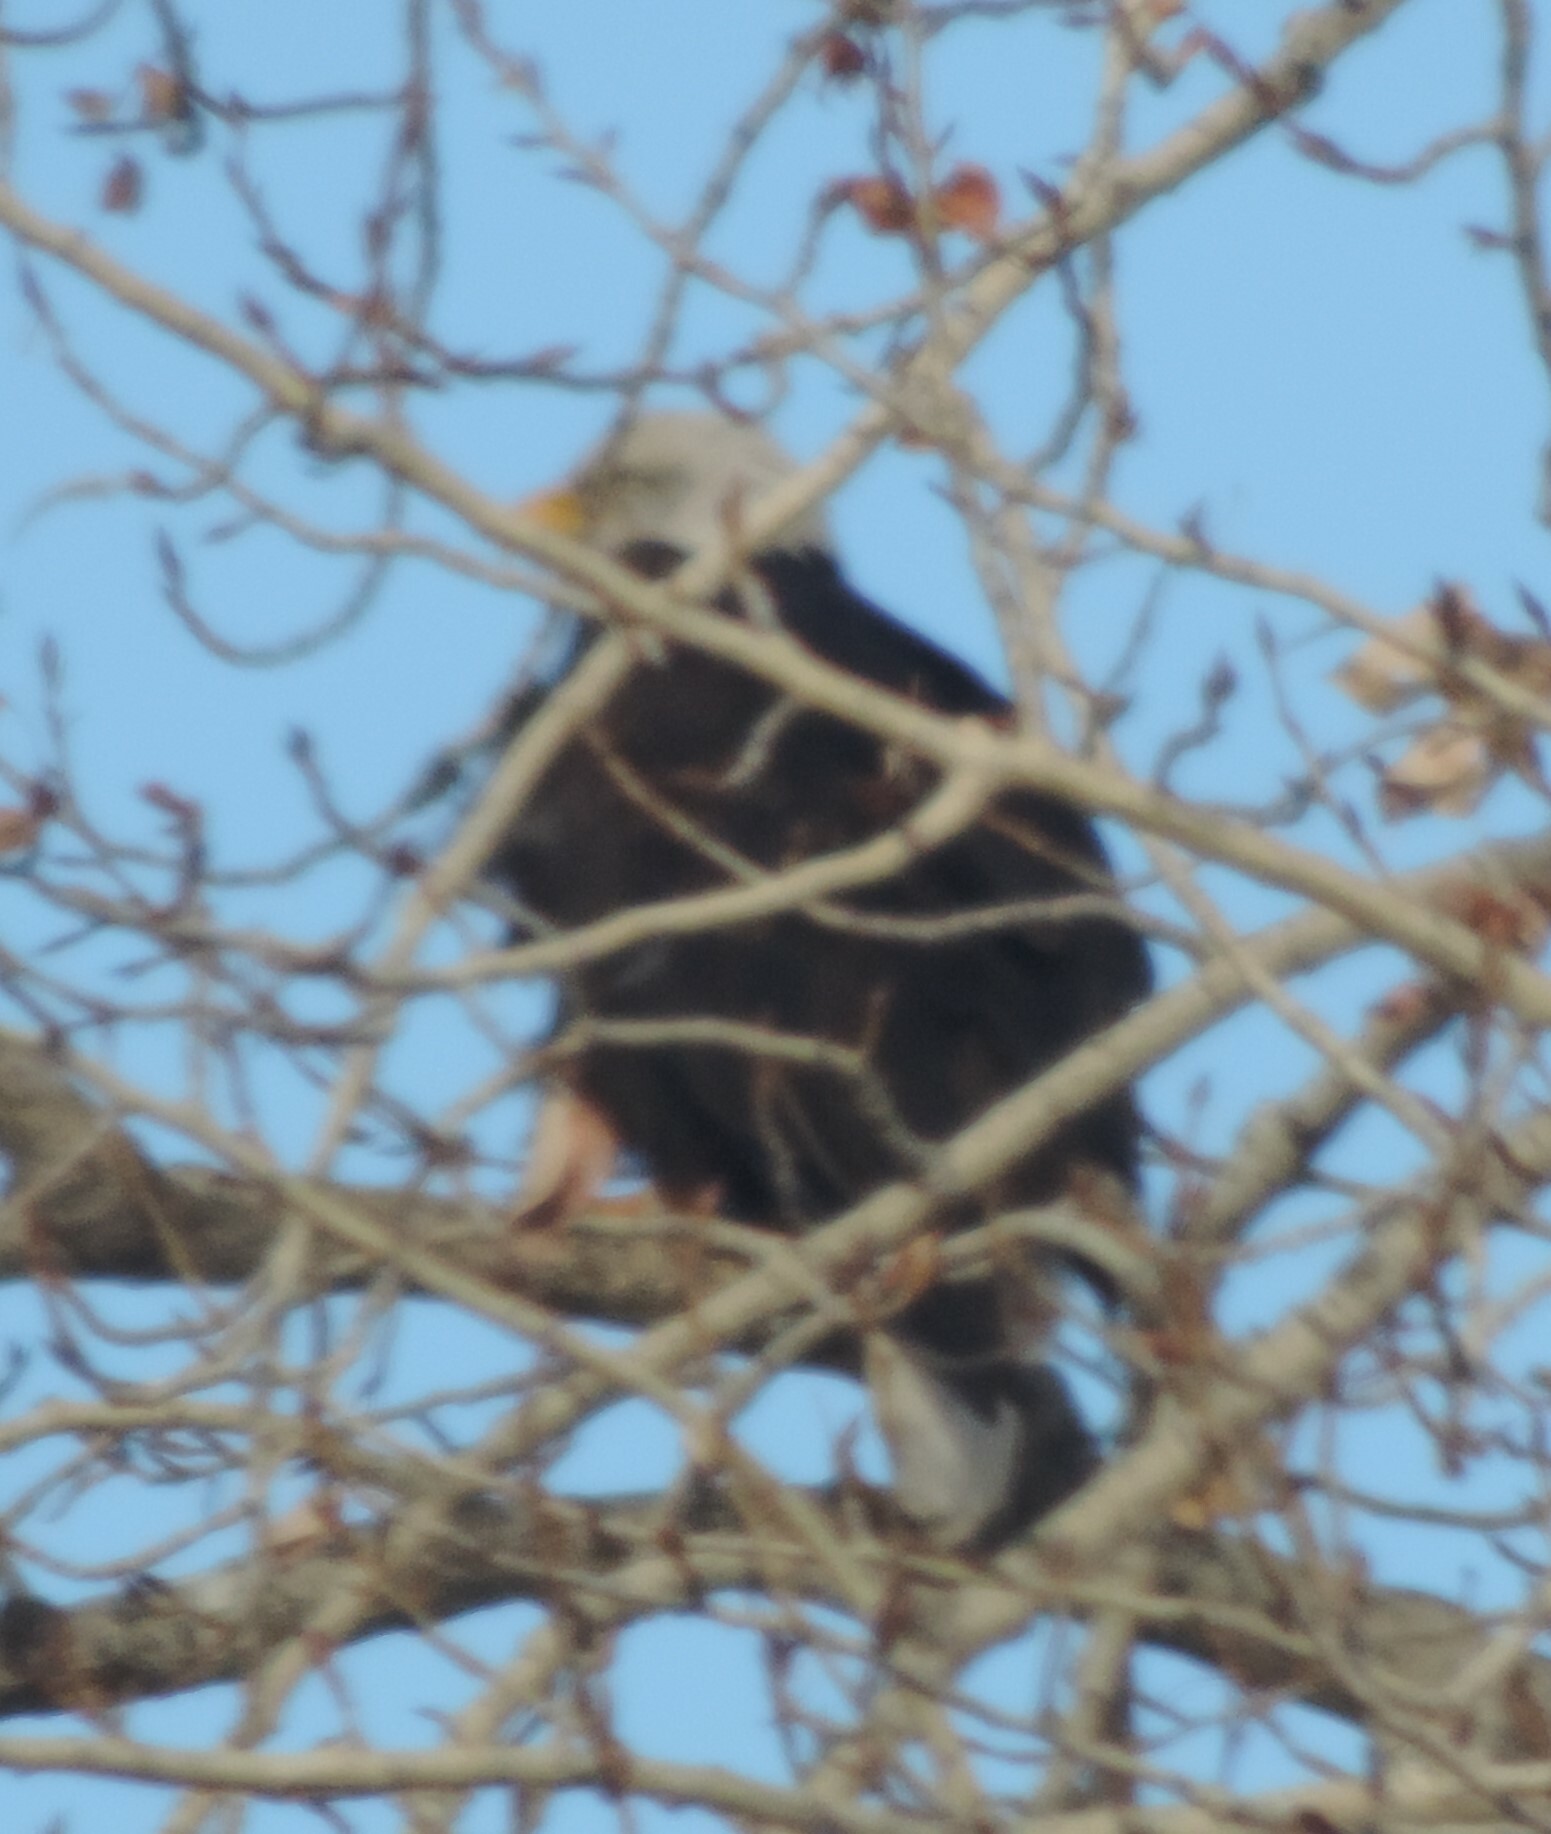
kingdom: Animalia
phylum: Chordata
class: Aves
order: Accipitriformes
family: Accipitridae
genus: Haliaeetus
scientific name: Haliaeetus leucocephalus
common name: Bald eagle
